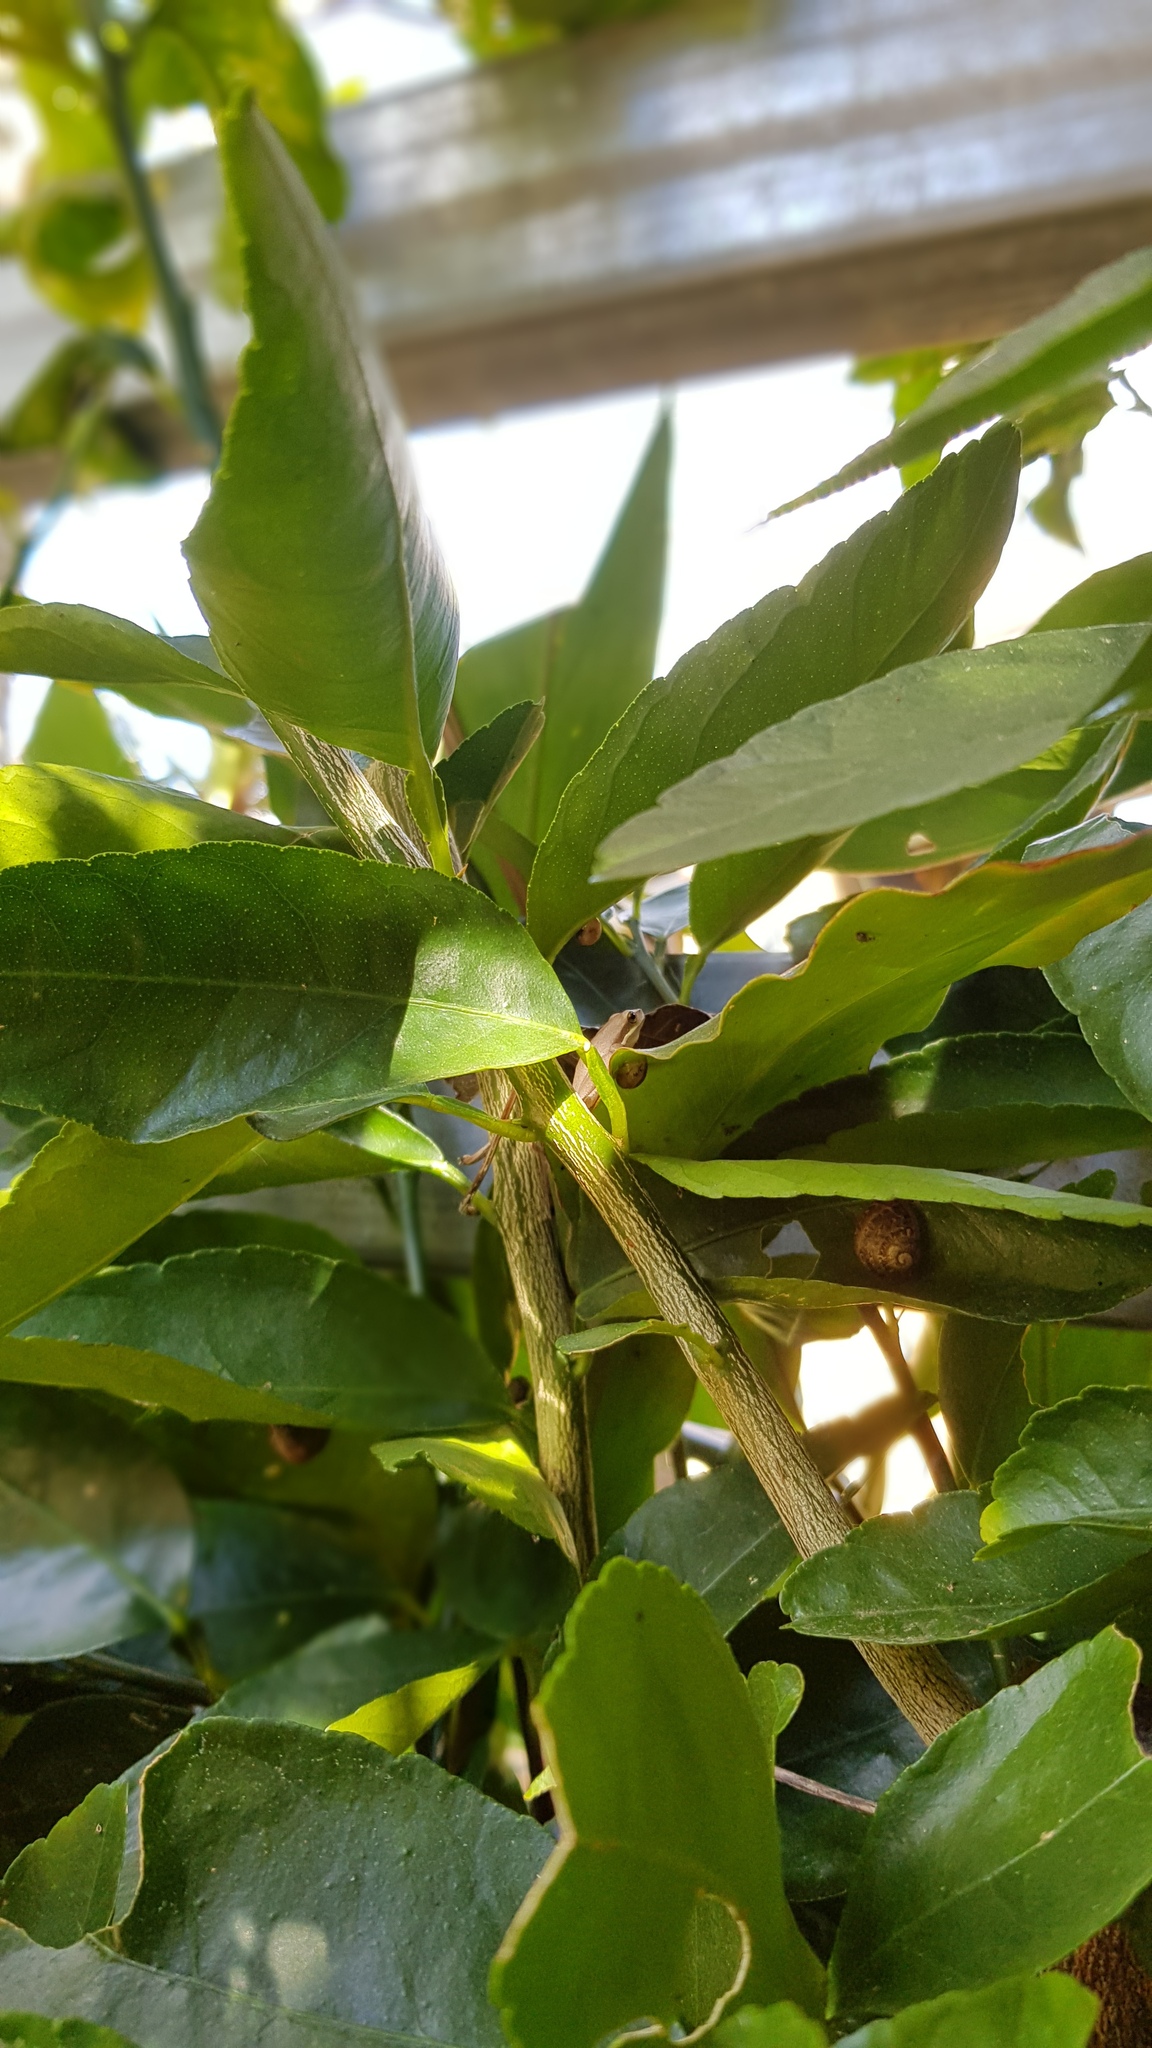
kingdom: Animalia
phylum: Chordata
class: Amphibia
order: Anura
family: Pelodryadidae
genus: Litoria
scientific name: Litoria fallax
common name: Eastern dwarf treefrog
